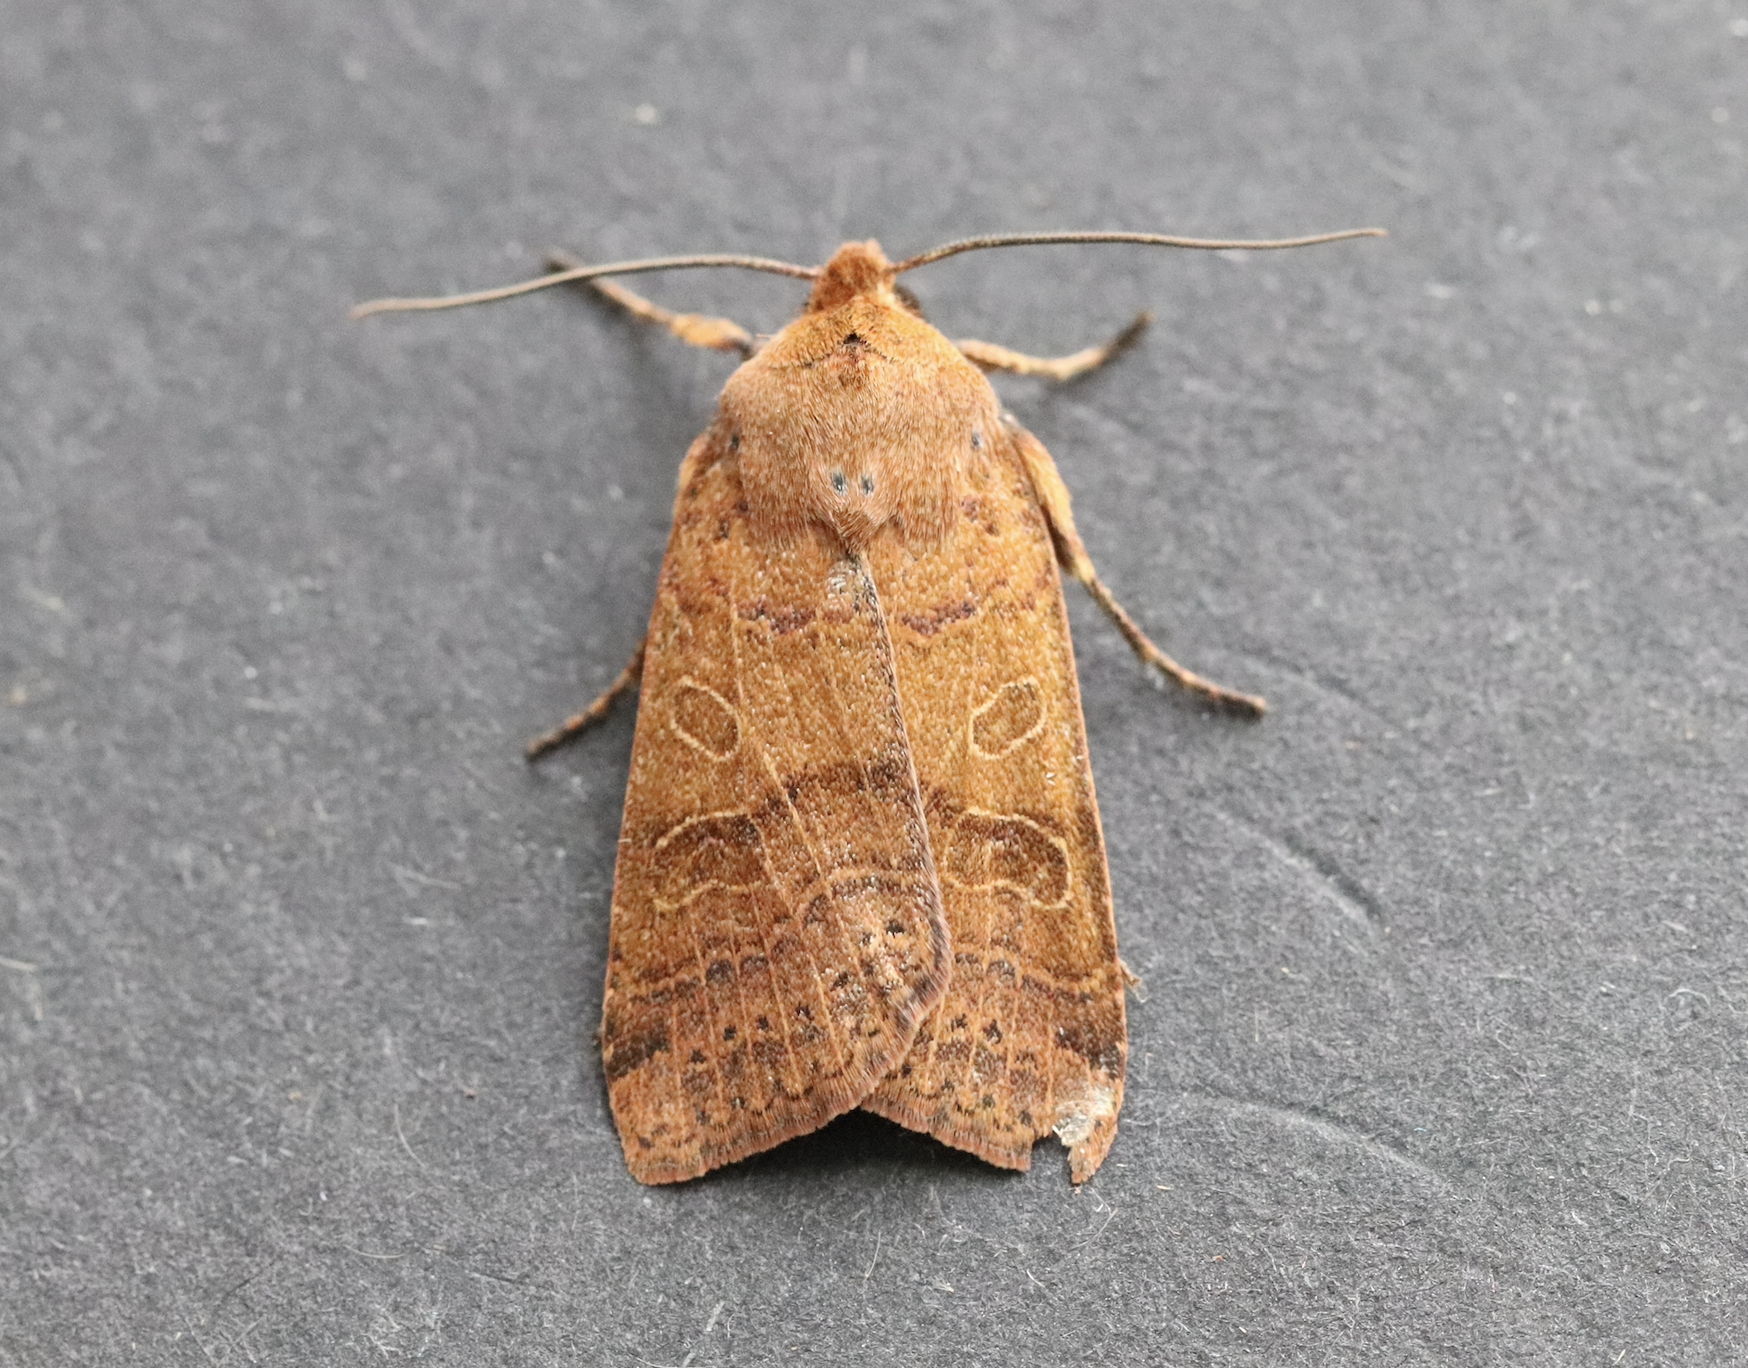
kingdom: Animalia
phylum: Arthropoda
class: Insecta
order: Lepidoptera
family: Noctuidae
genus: Agrochola
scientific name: Agrochola nitida
